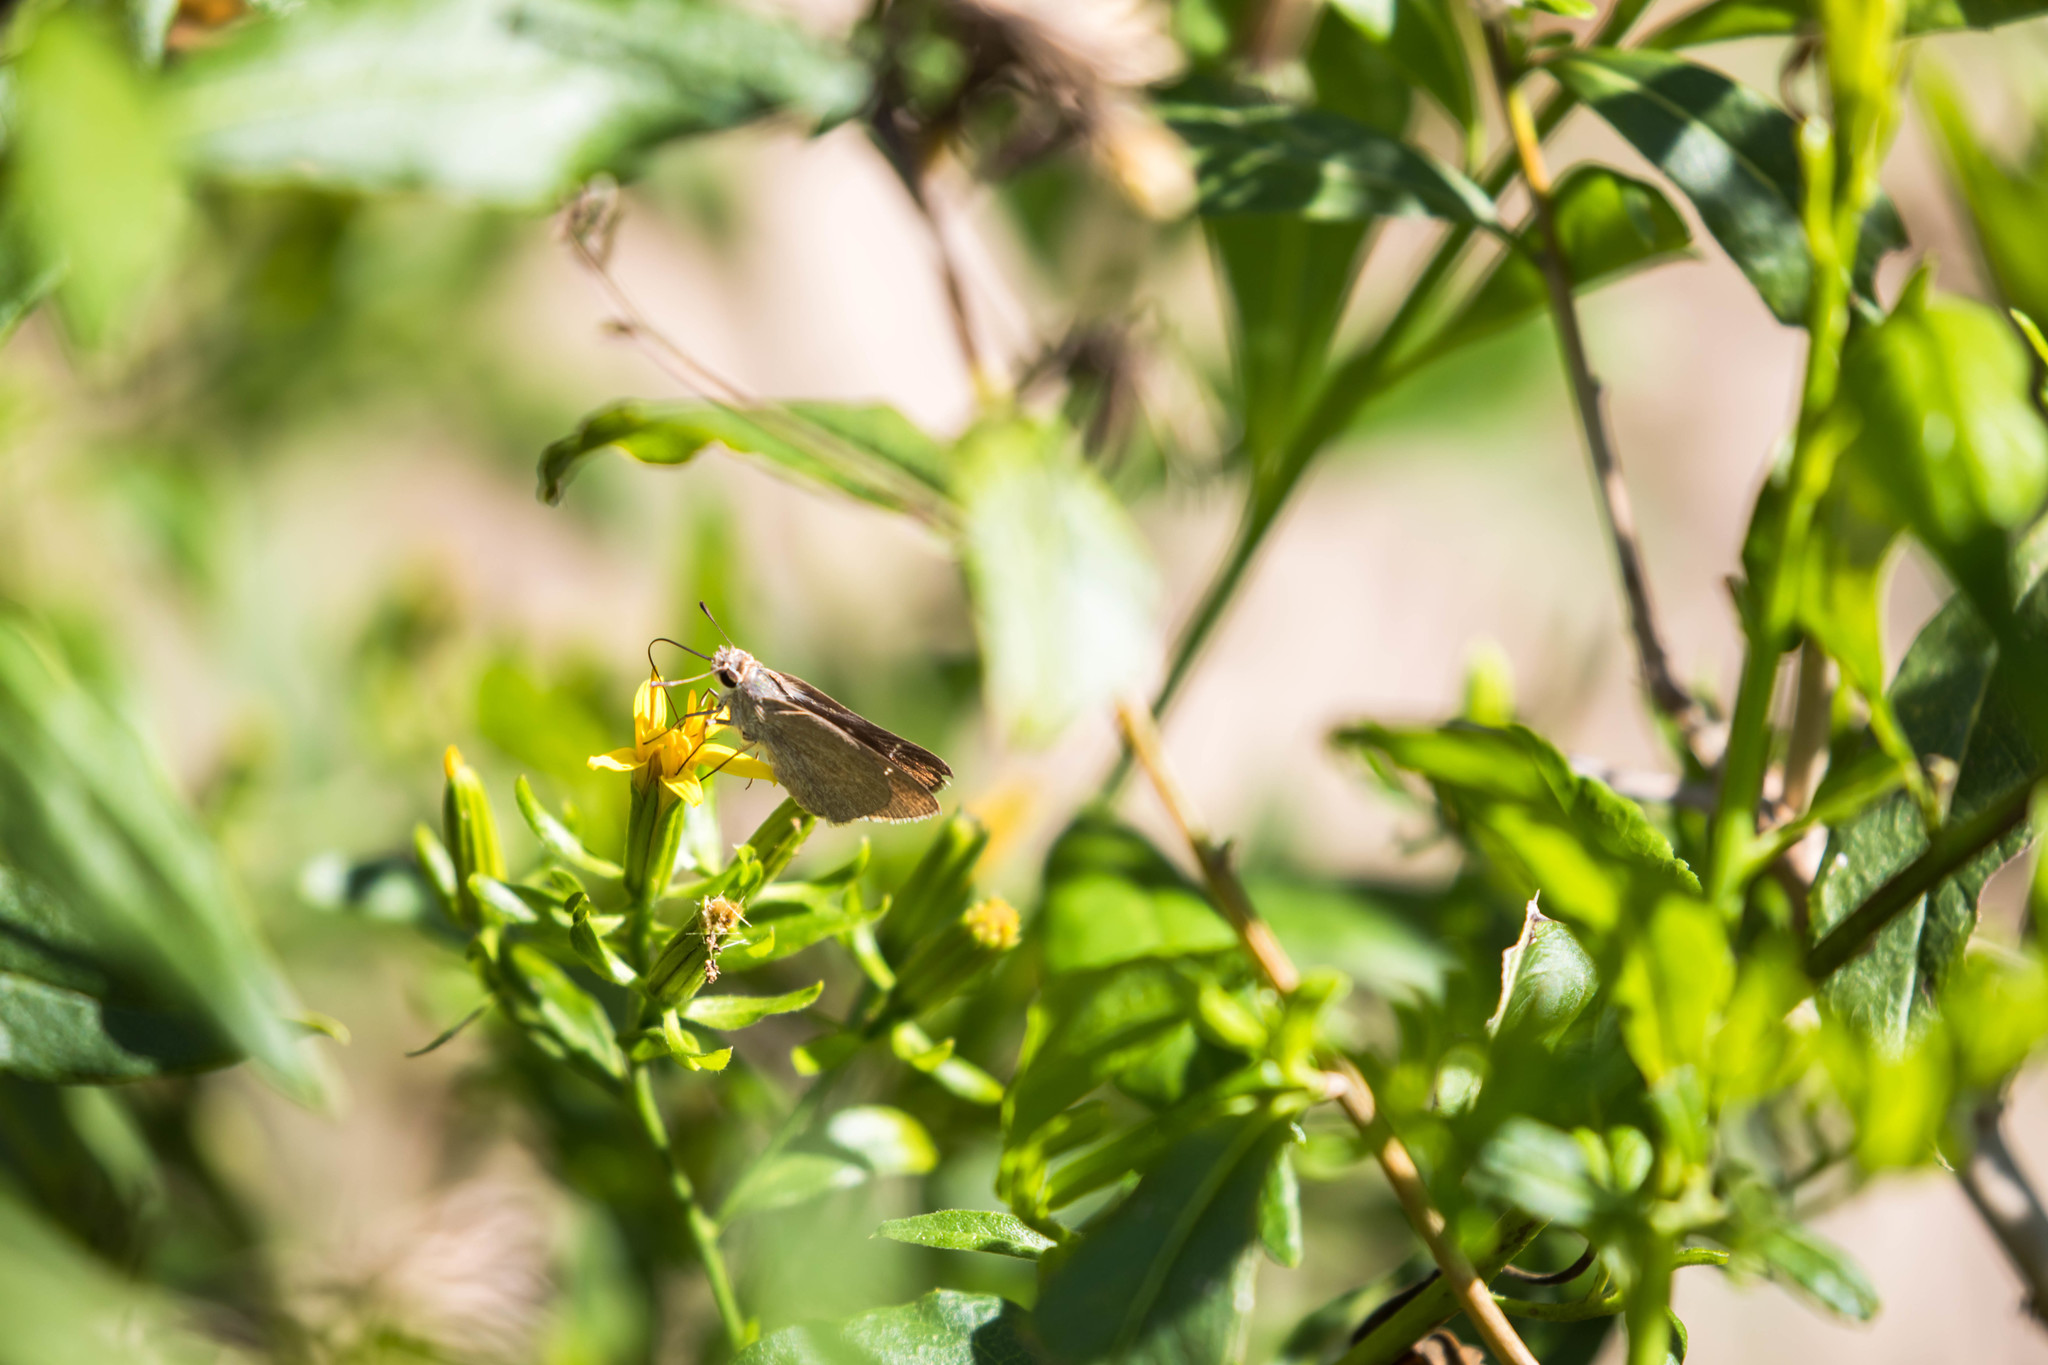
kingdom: Animalia
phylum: Arthropoda
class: Insecta
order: Lepidoptera
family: Hesperiidae
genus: Lerodea
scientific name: Lerodea eufala
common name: Eufala skipper
